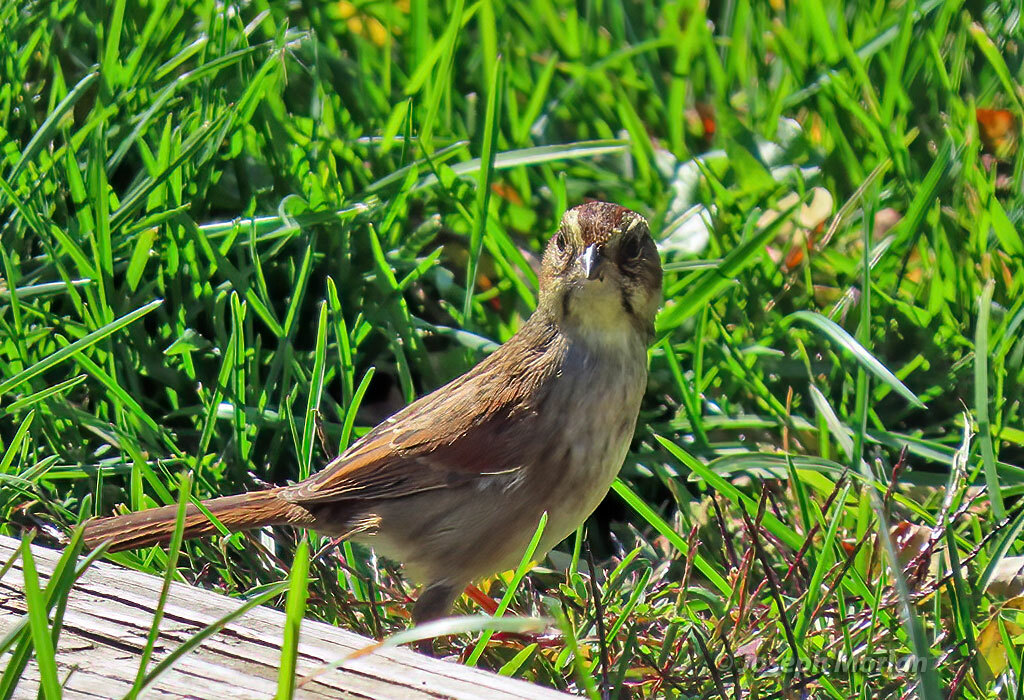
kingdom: Animalia
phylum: Chordata
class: Aves
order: Passeriformes
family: Passerellidae
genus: Melospiza
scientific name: Melospiza georgiana
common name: Swamp sparrow
